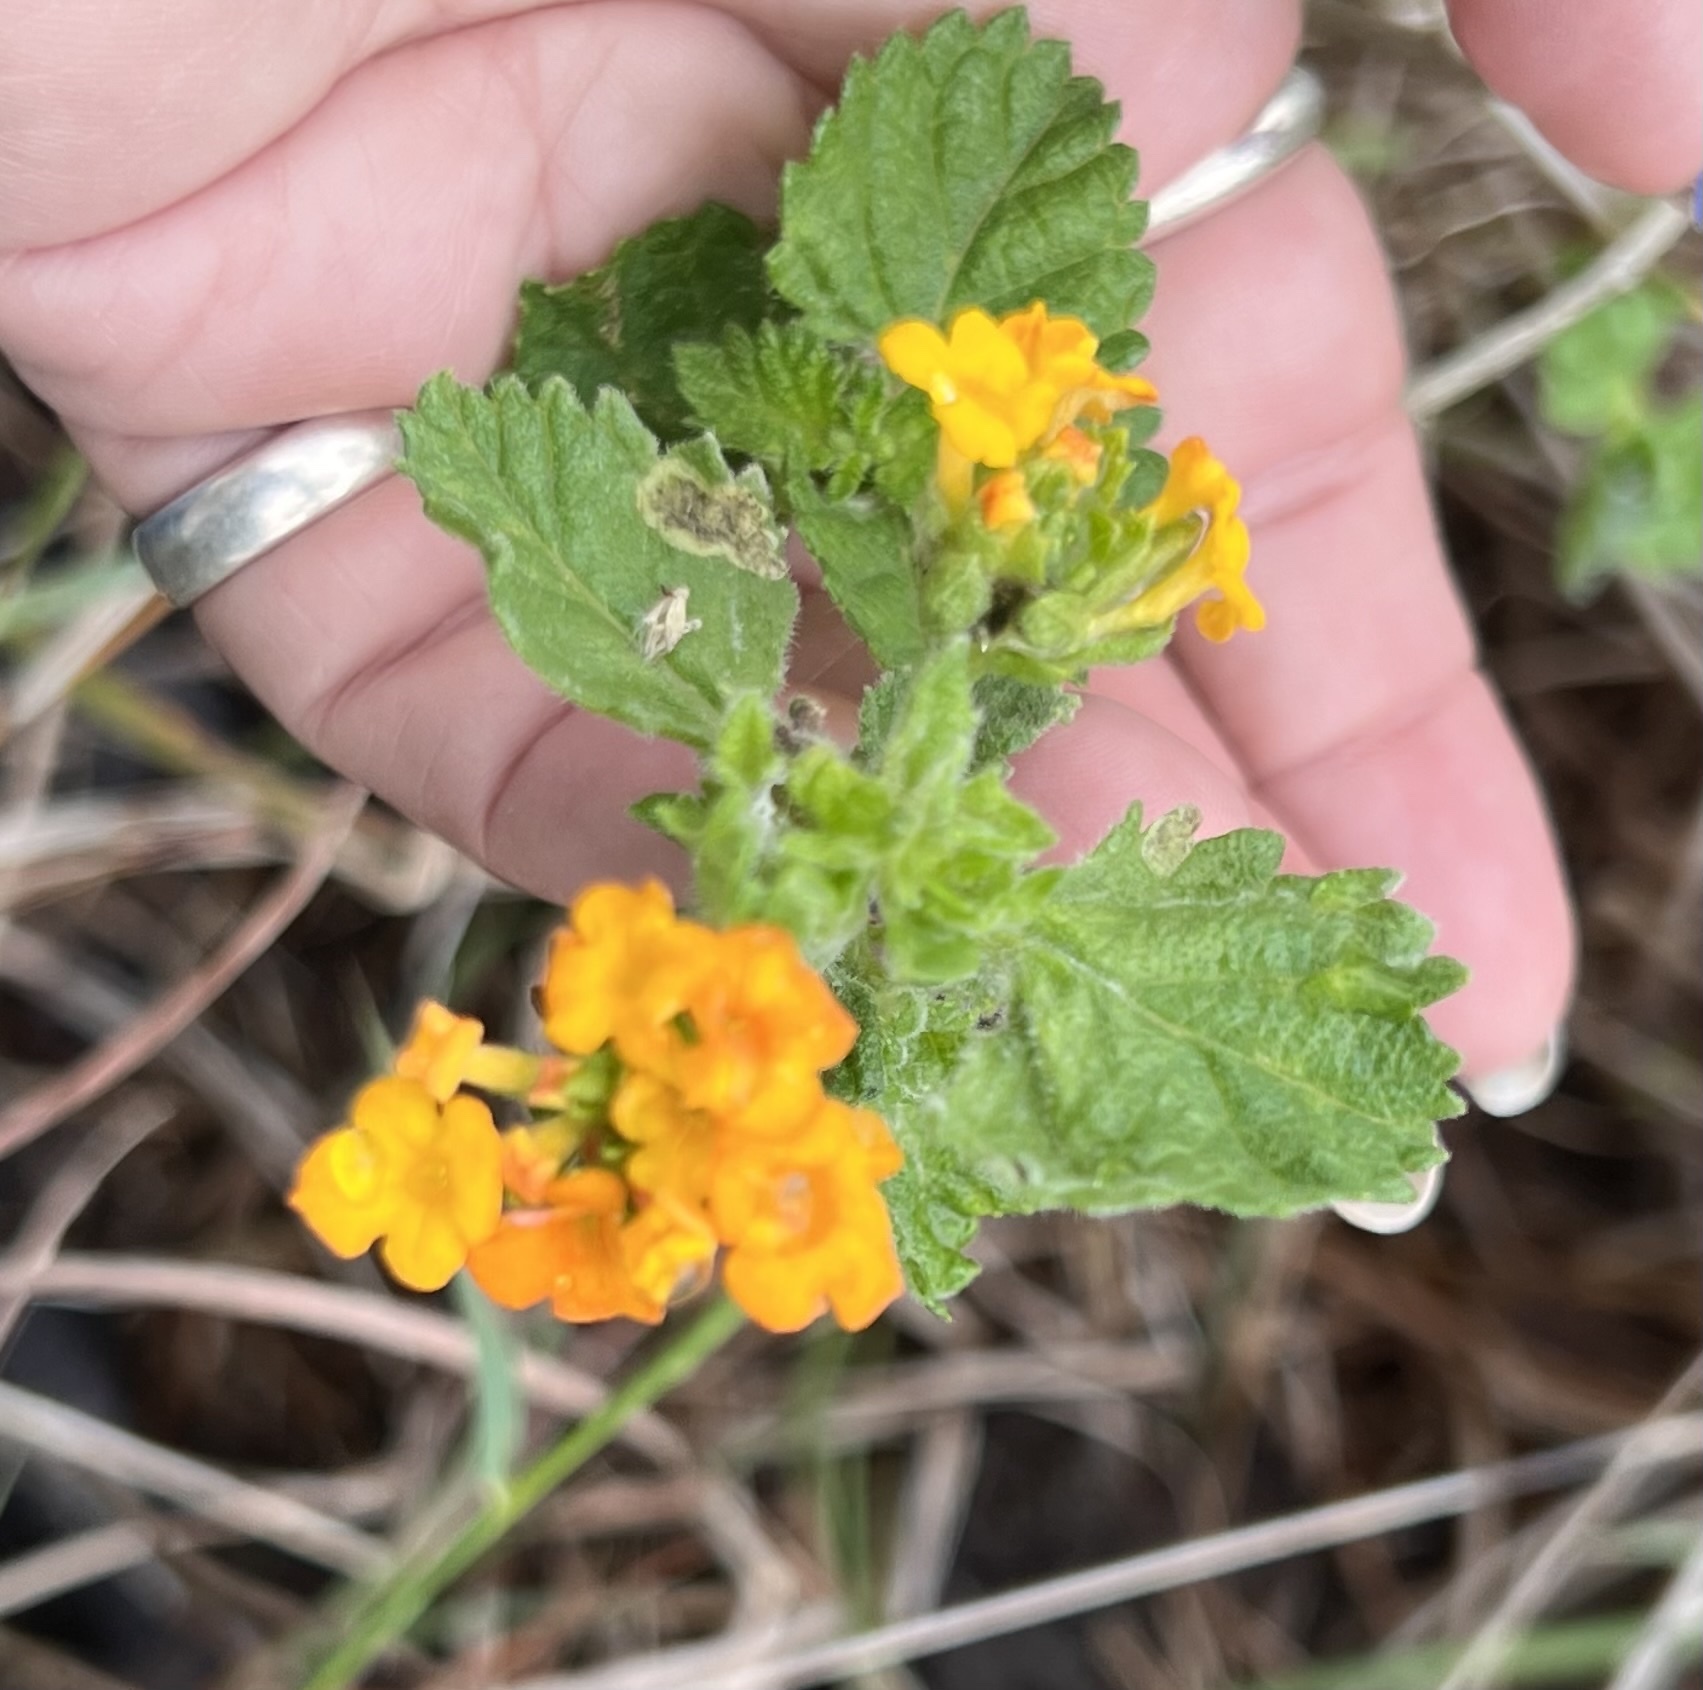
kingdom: Plantae
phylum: Tracheophyta
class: Magnoliopsida
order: Lamiales
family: Verbenaceae
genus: Lantana
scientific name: Lantana urticoides
